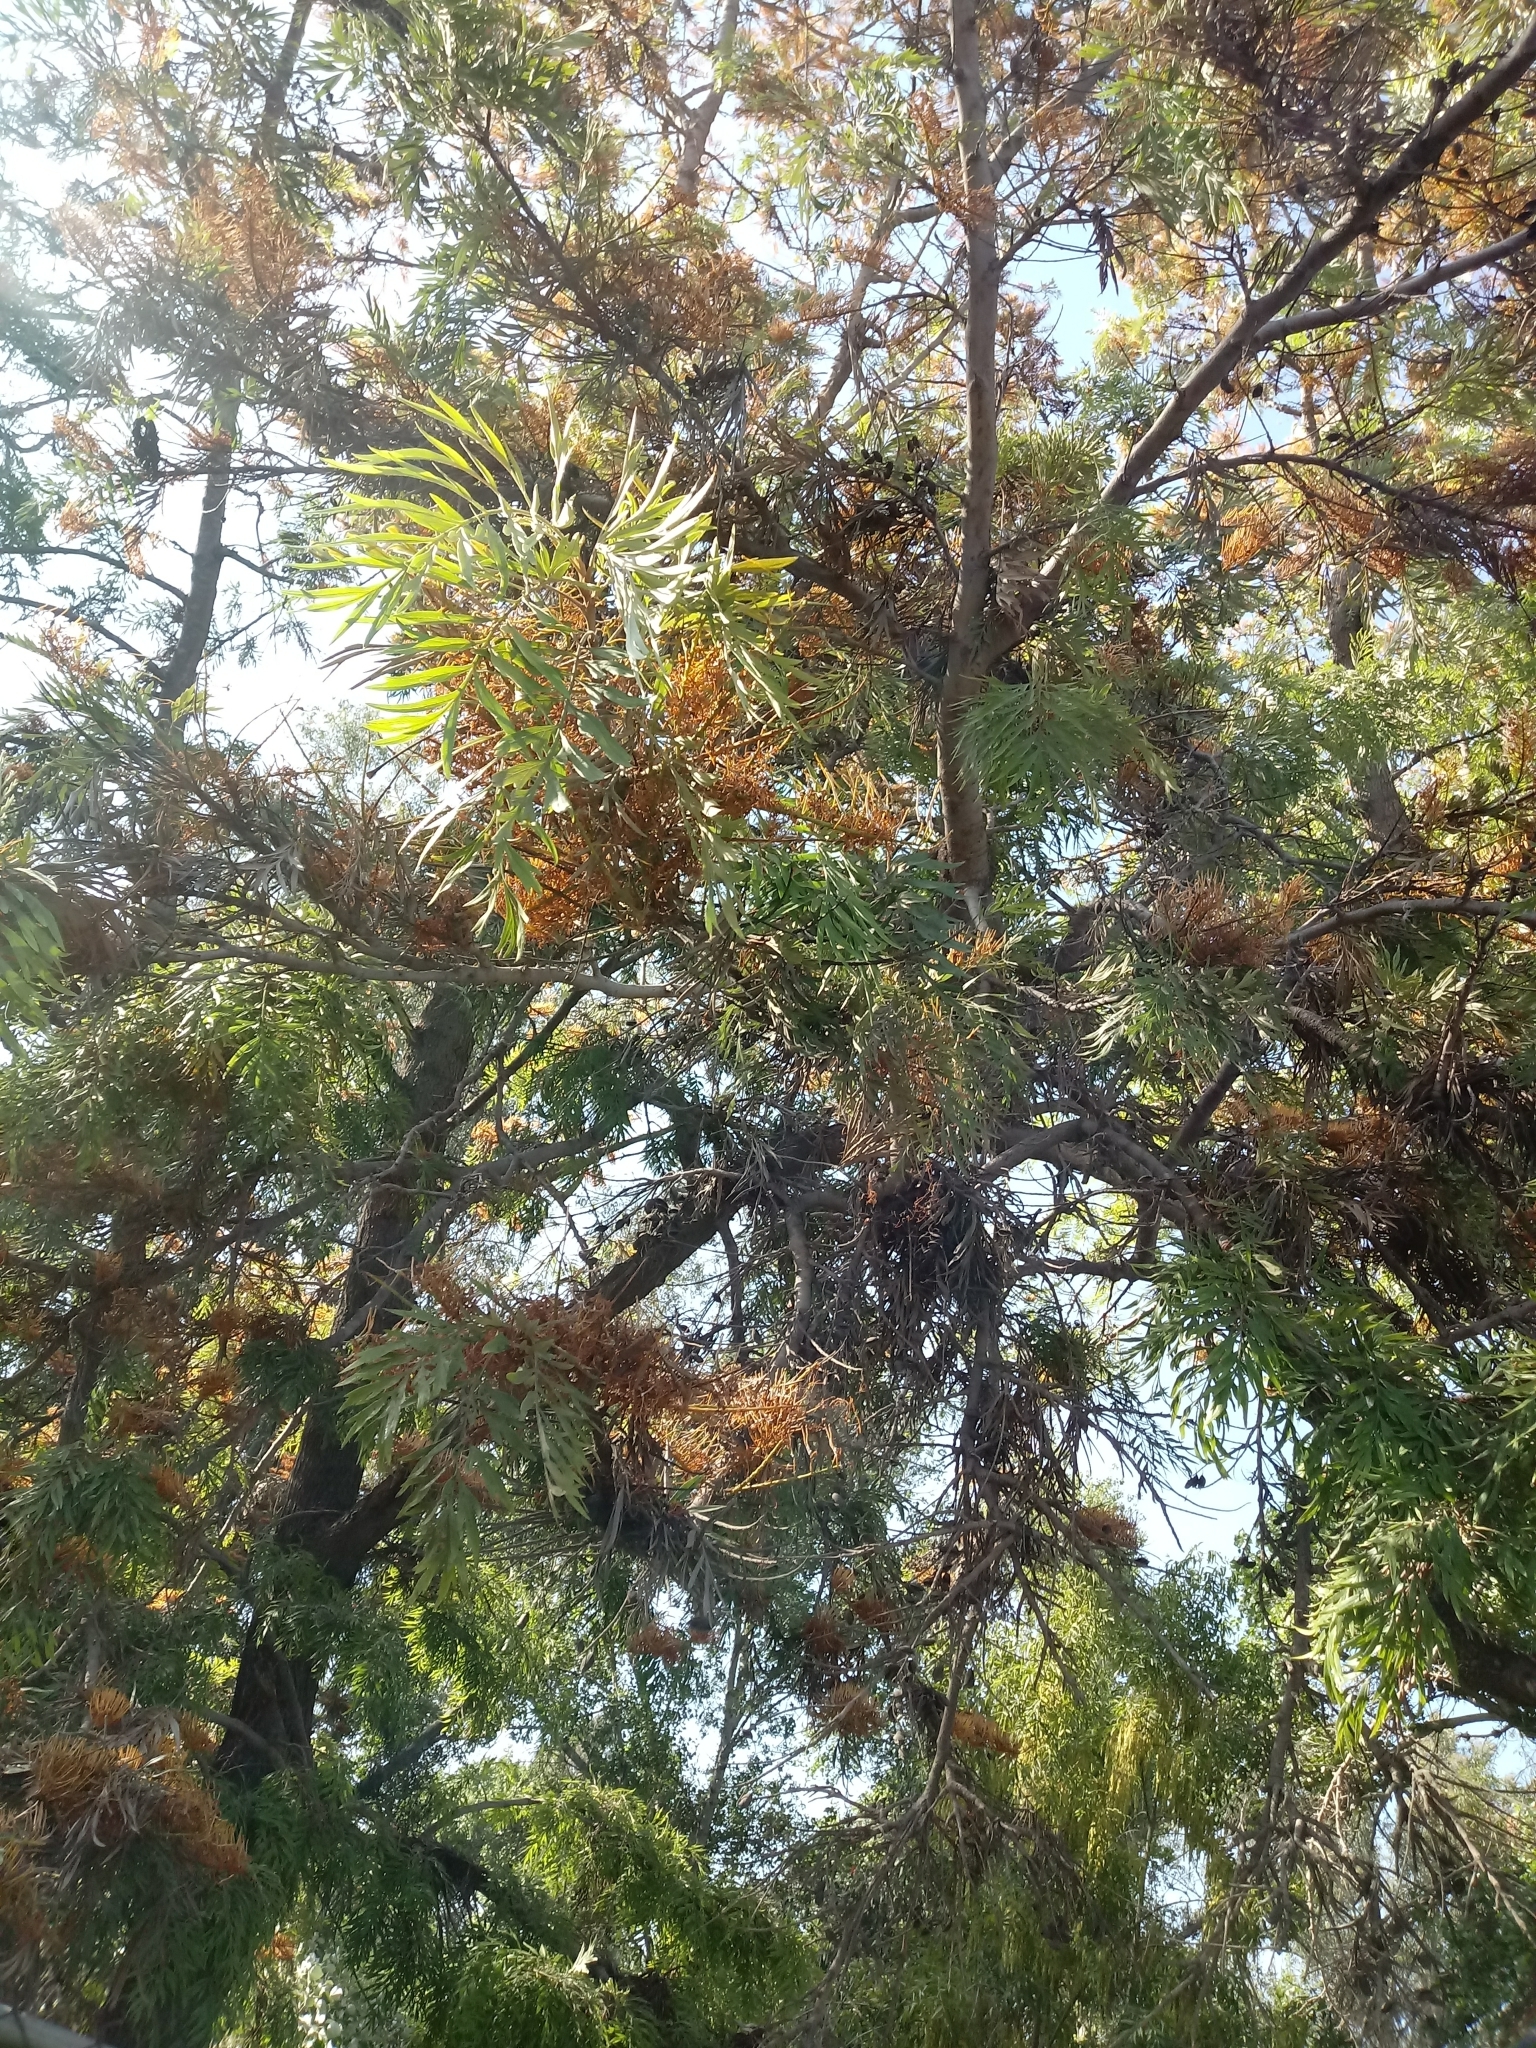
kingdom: Plantae
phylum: Tracheophyta
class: Magnoliopsida
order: Proteales
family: Proteaceae
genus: Grevillea
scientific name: Grevillea robusta
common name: Silkoak
